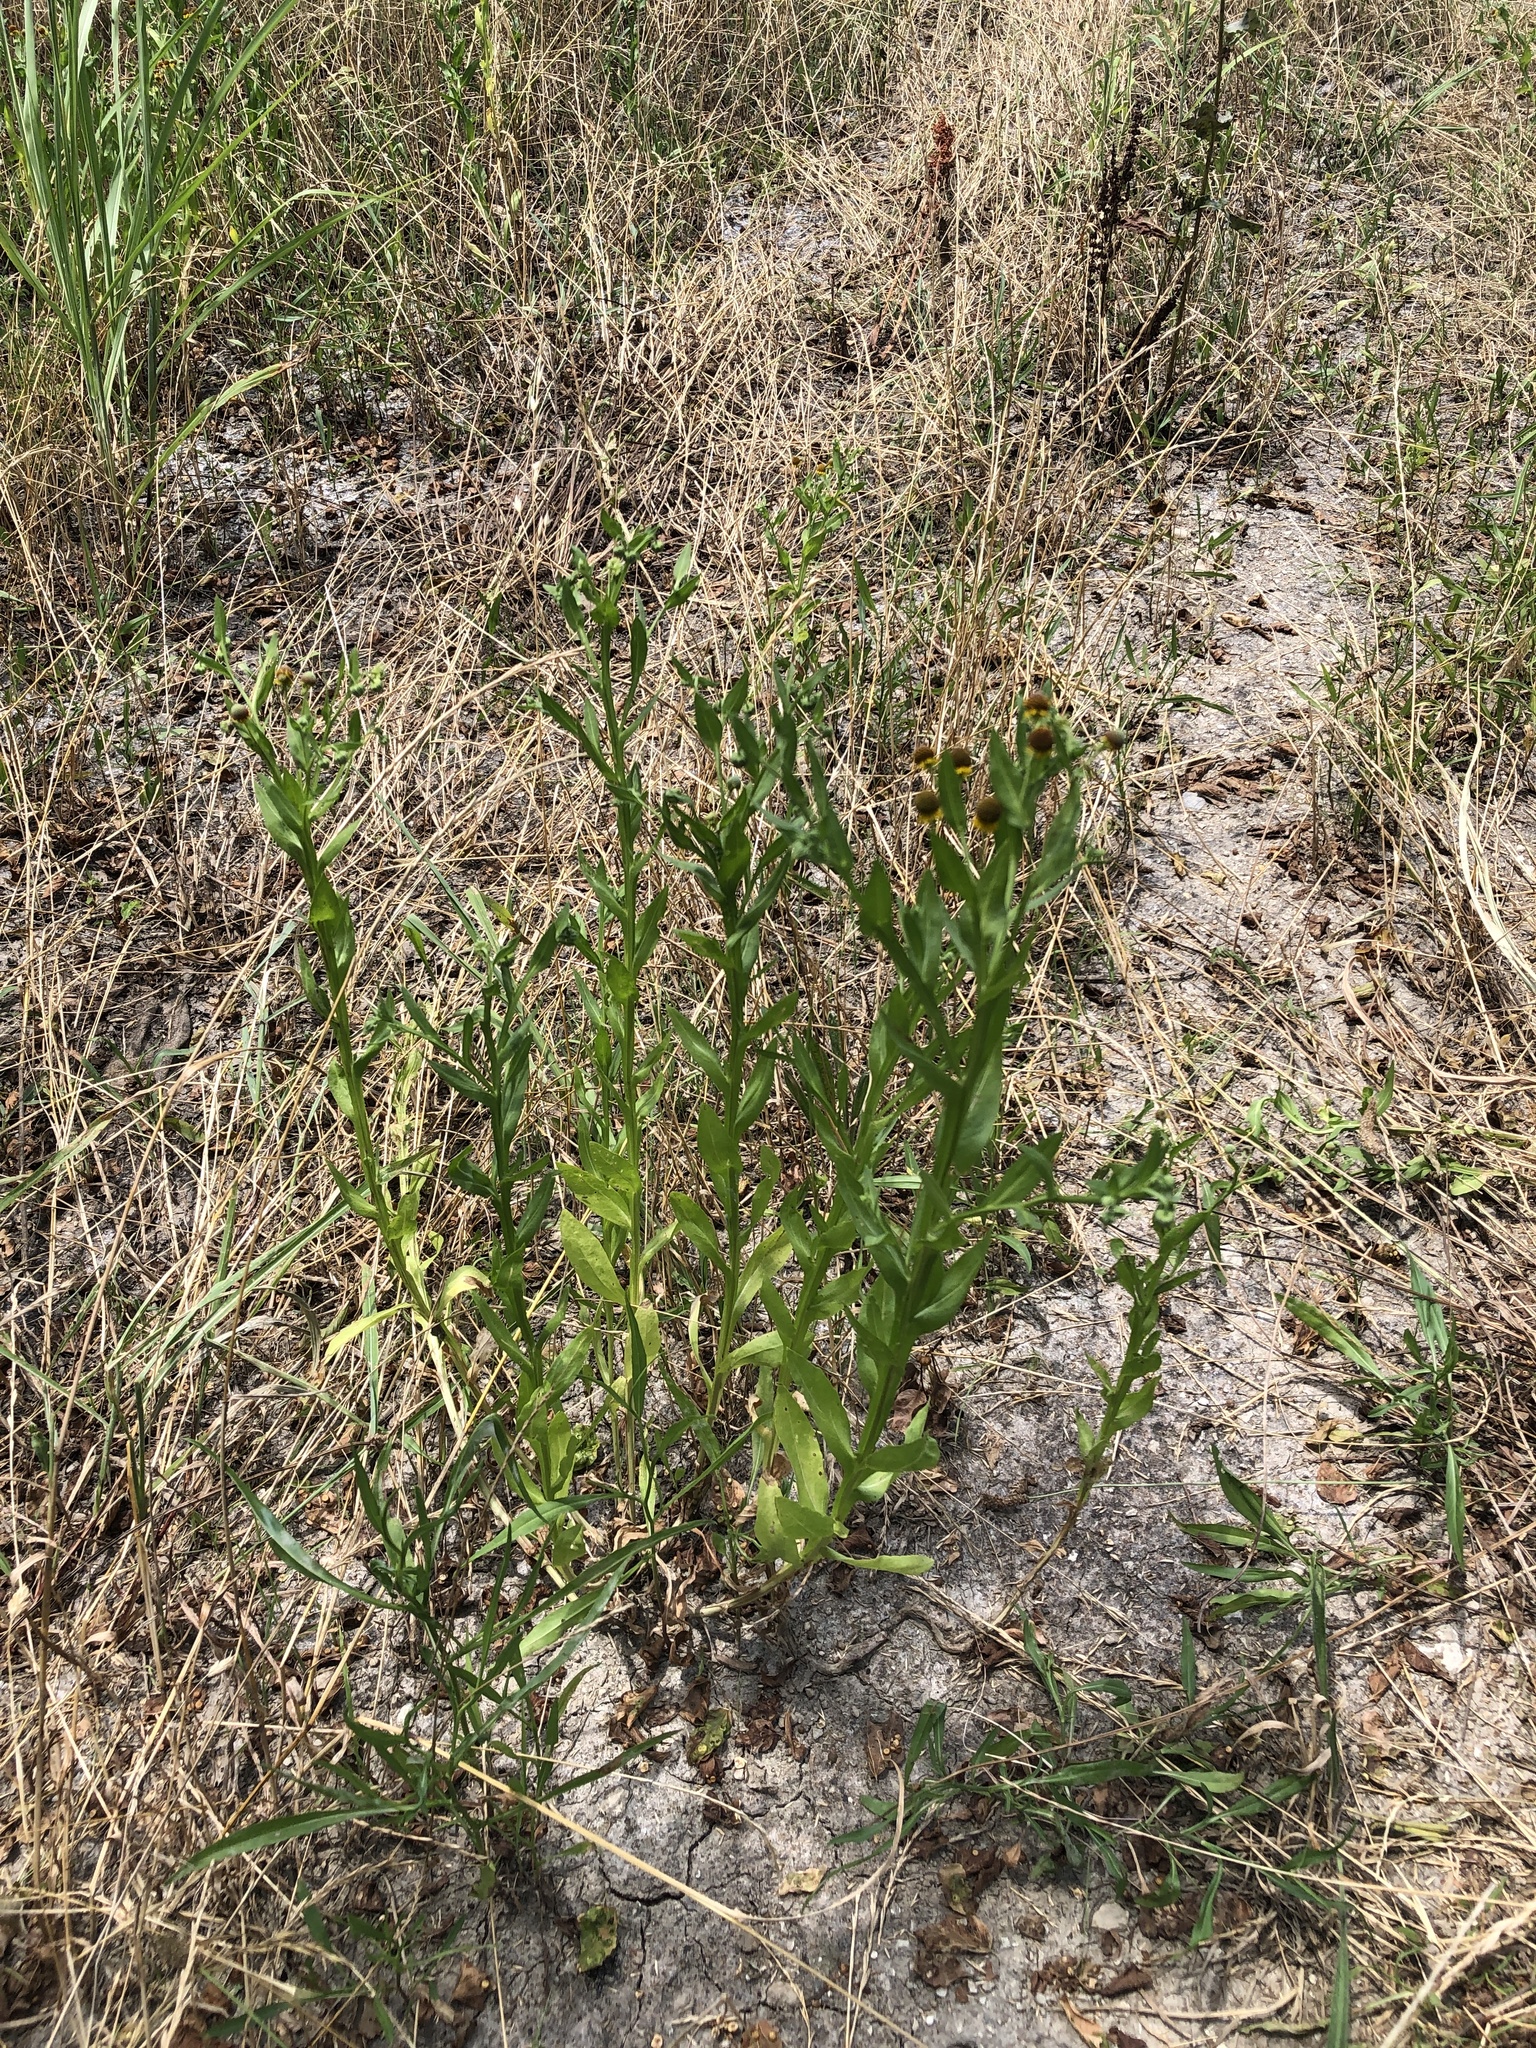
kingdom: Plantae
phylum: Tracheophyta
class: Magnoliopsida
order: Asterales
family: Asteraceae
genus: Helenium
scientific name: Helenium microcephalum
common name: Smallhead sneezeweed
